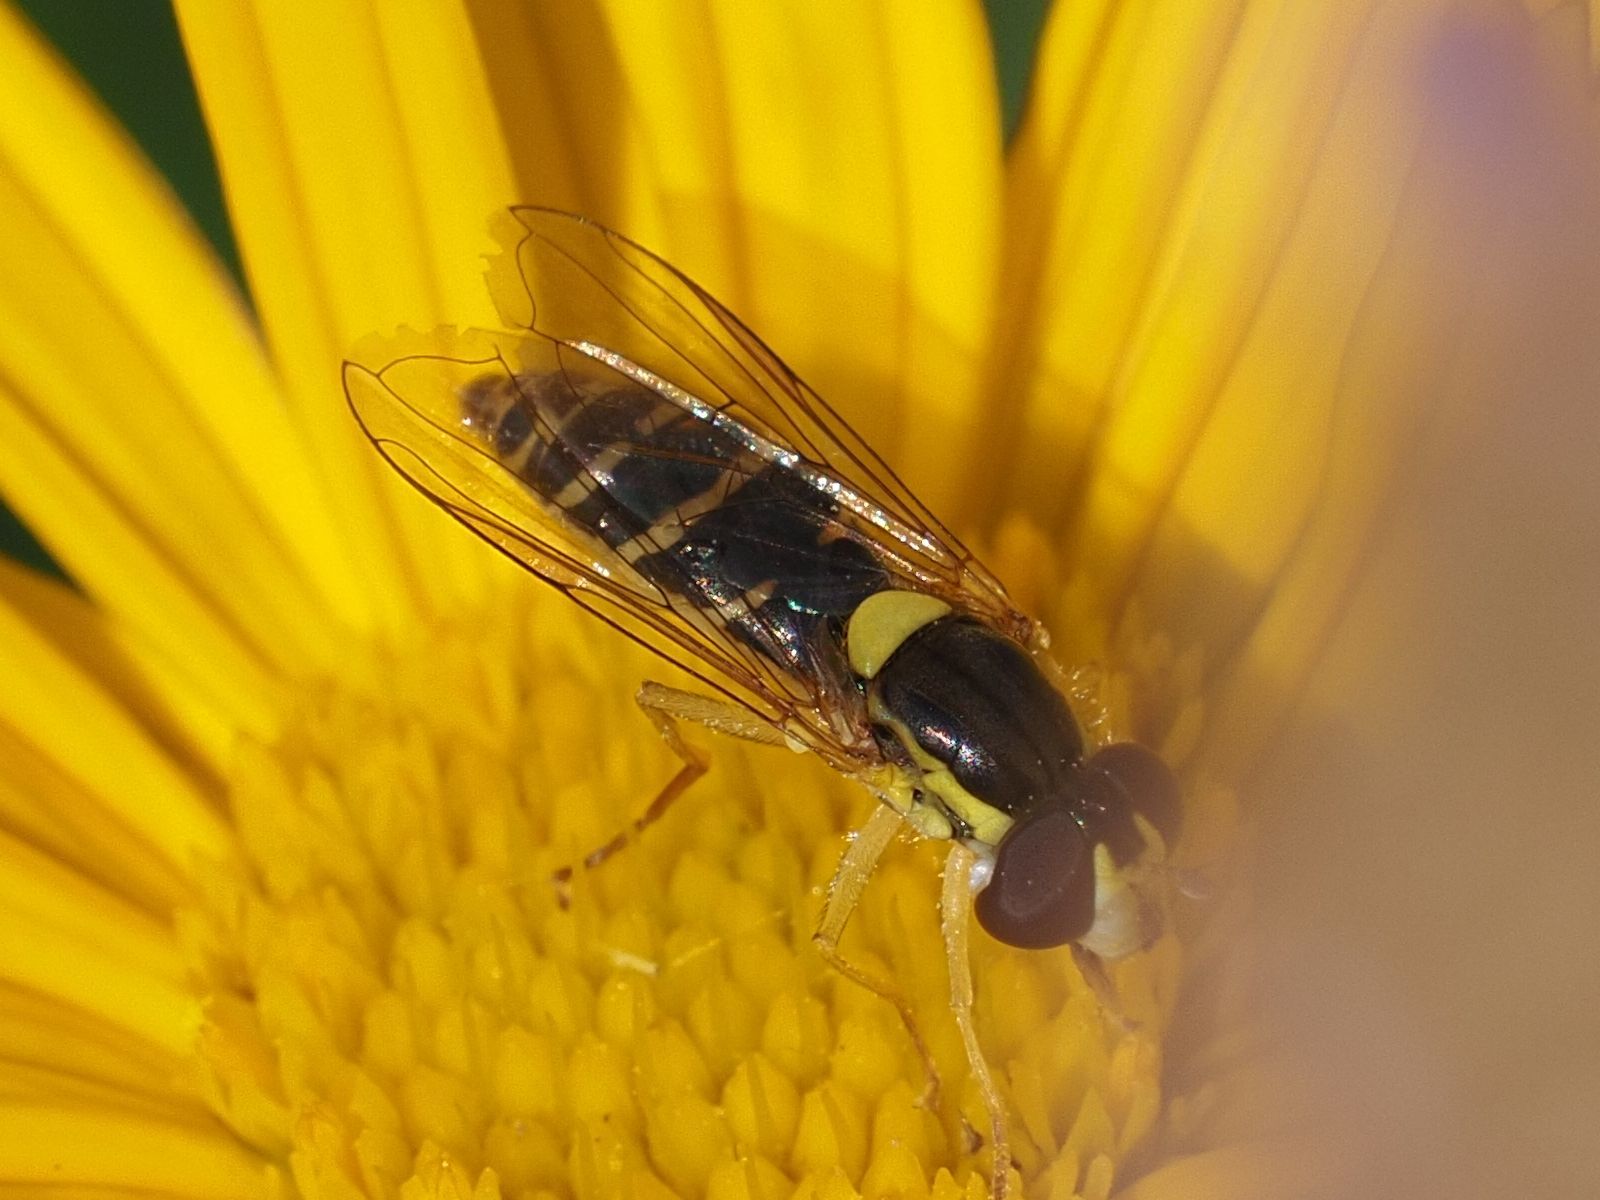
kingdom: Animalia
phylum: Arthropoda
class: Insecta
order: Diptera
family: Syrphidae
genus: Sphaerophoria
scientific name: Sphaerophoria
